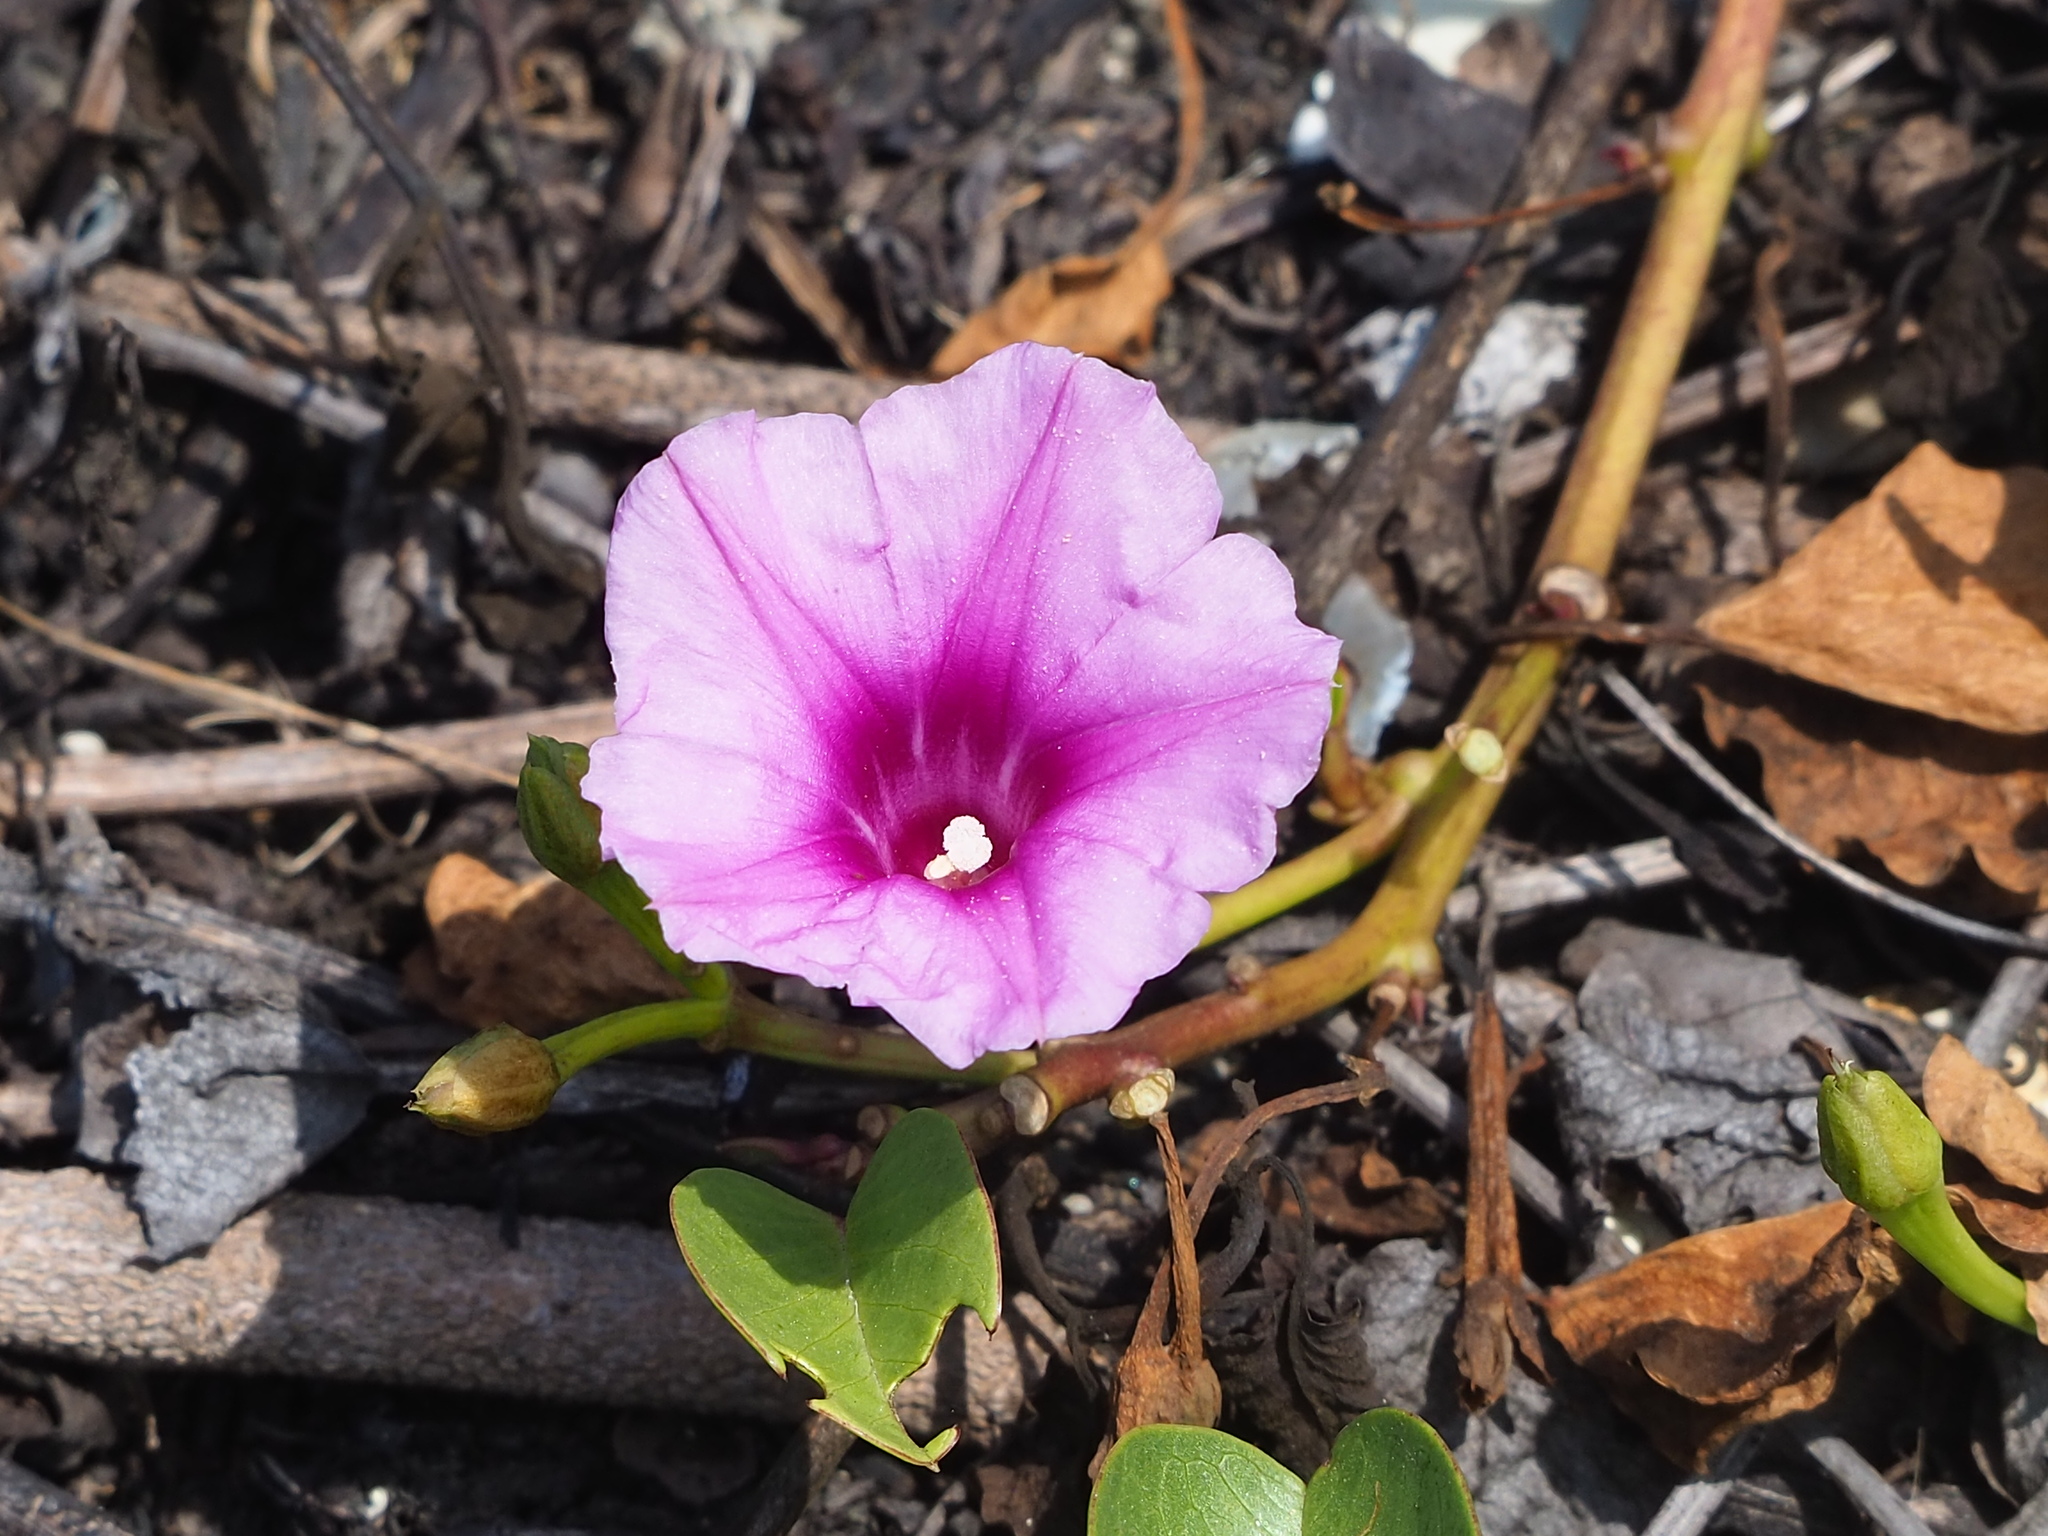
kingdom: Plantae
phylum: Tracheophyta
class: Magnoliopsida
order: Solanales
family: Convolvulaceae
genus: Ipomoea
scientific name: Ipomoea pes-caprae
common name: Beach morning glory
